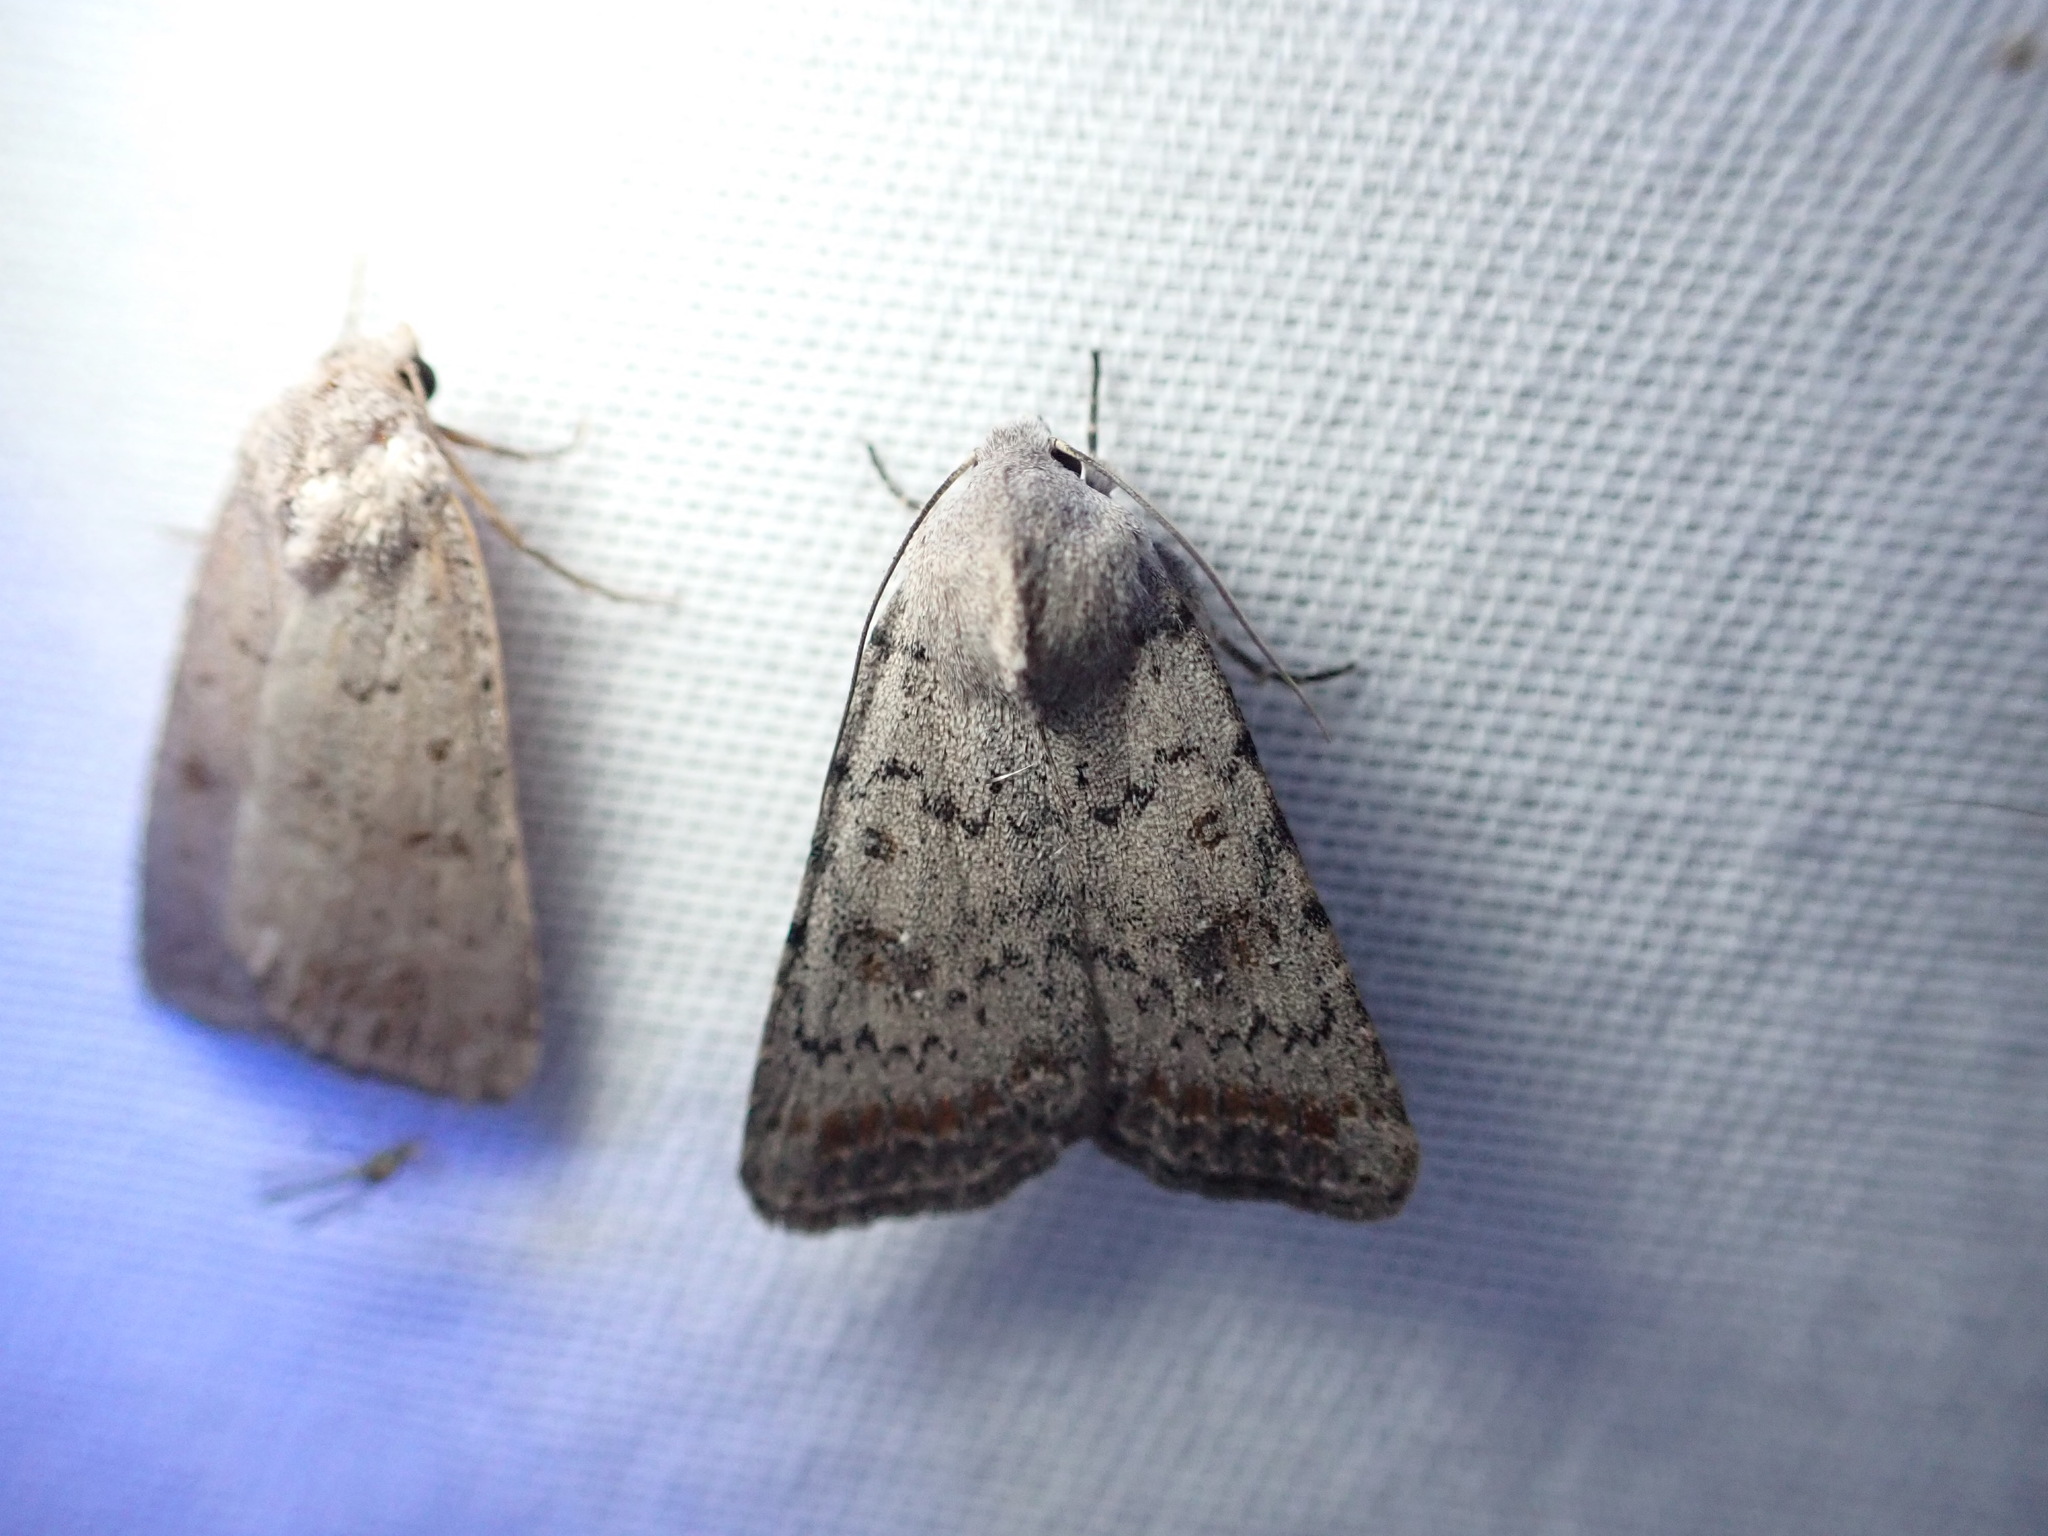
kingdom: Animalia
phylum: Arthropoda
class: Insecta
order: Lepidoptera
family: Noctuidae
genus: Caradrina
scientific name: Caradrina montana
